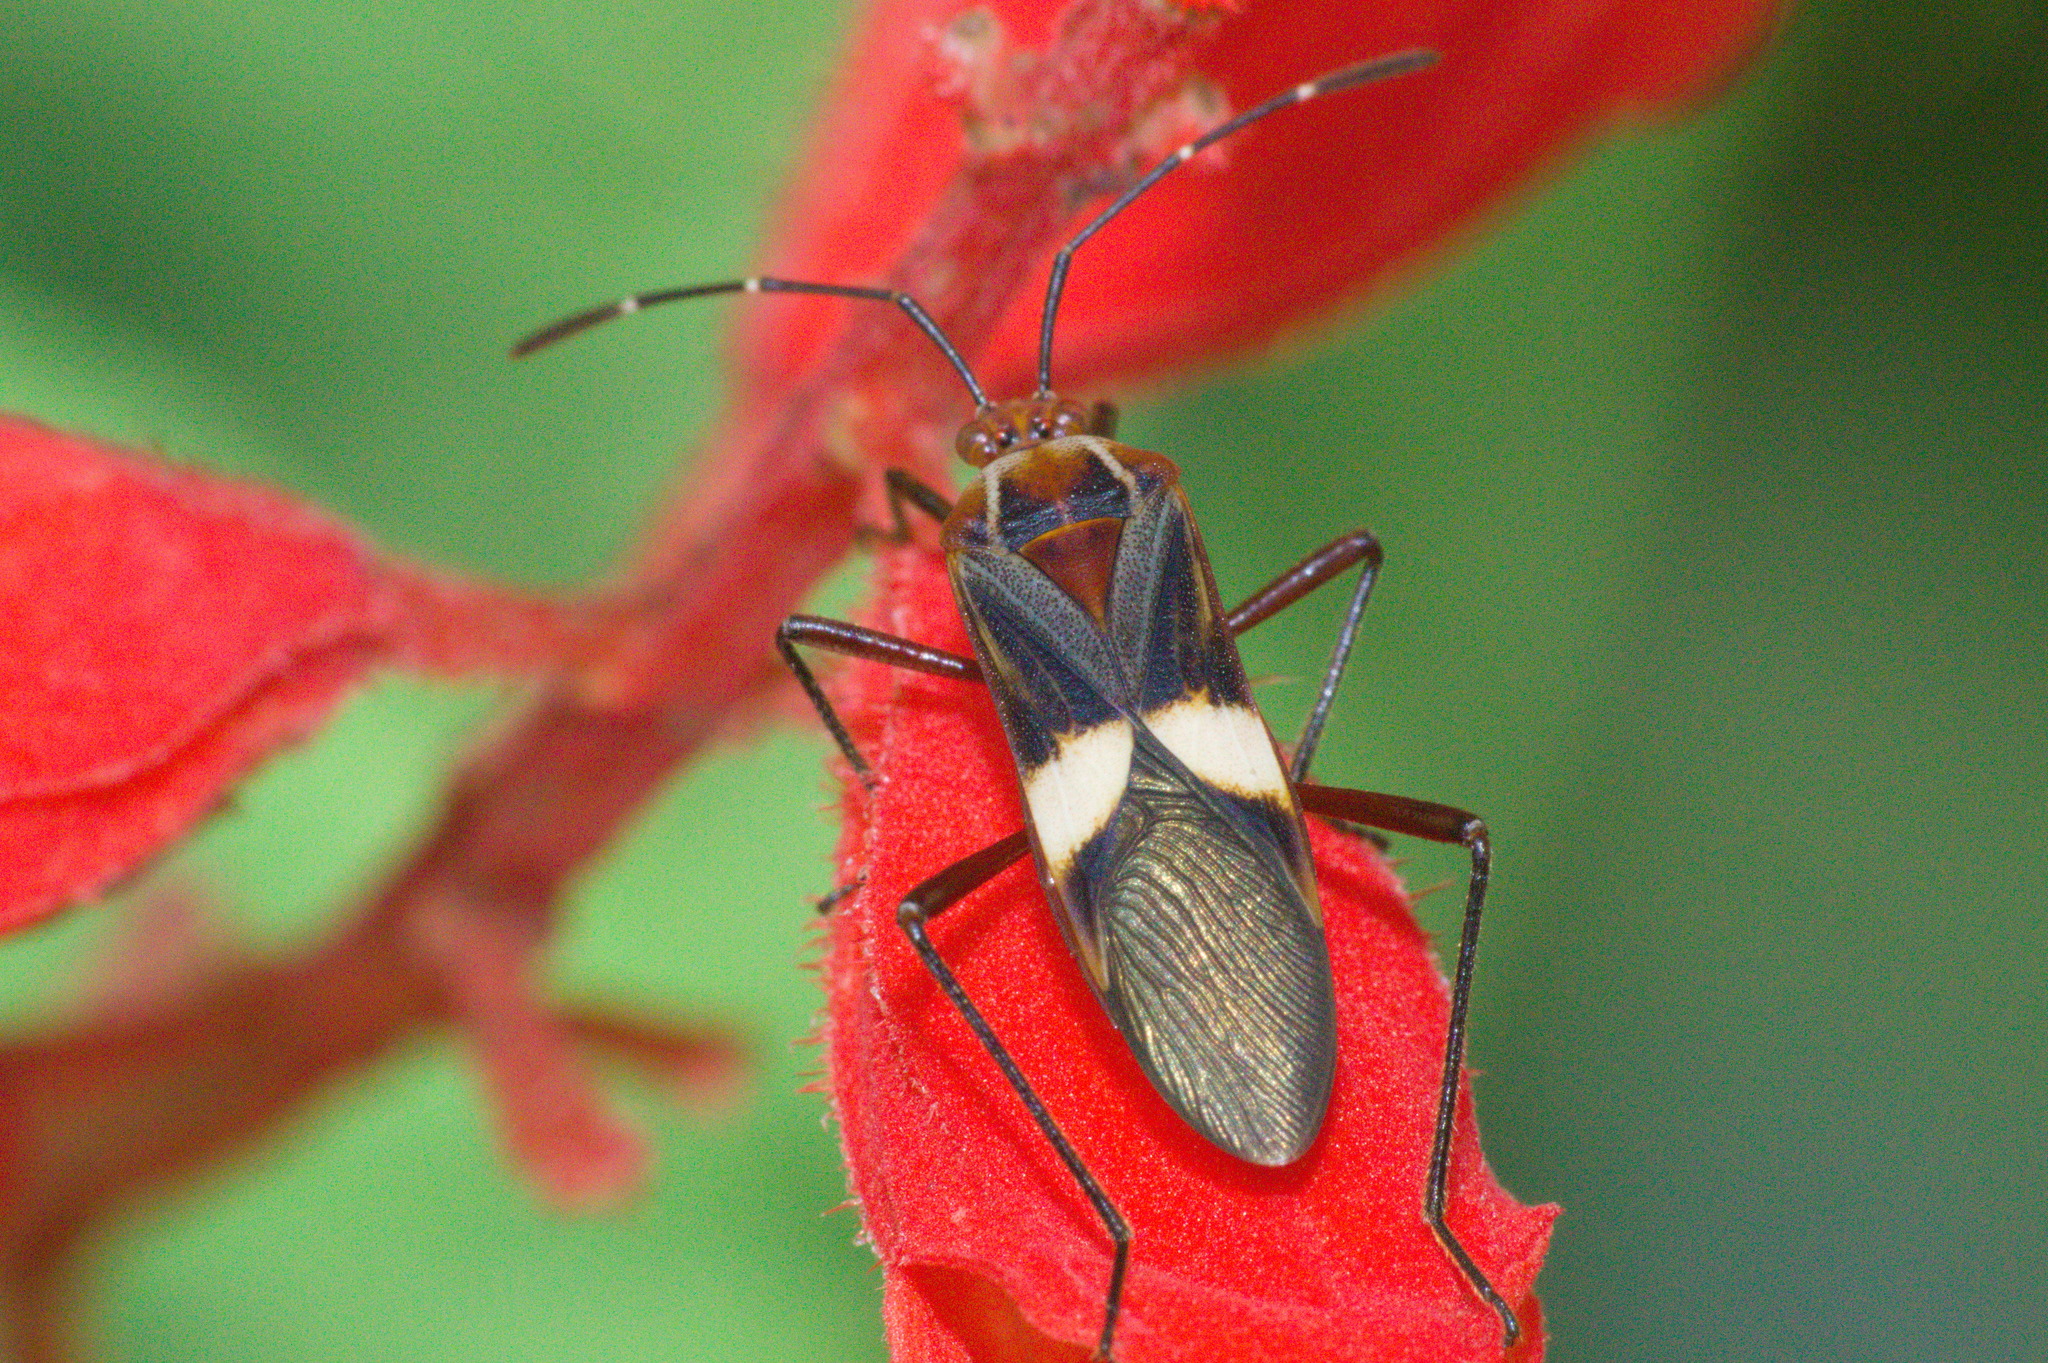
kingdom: Animalia
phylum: Arthropoda
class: Insecta
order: Hemiptera
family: Coreidae
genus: Hypselonotus
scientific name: Hypselonotus interruptus
